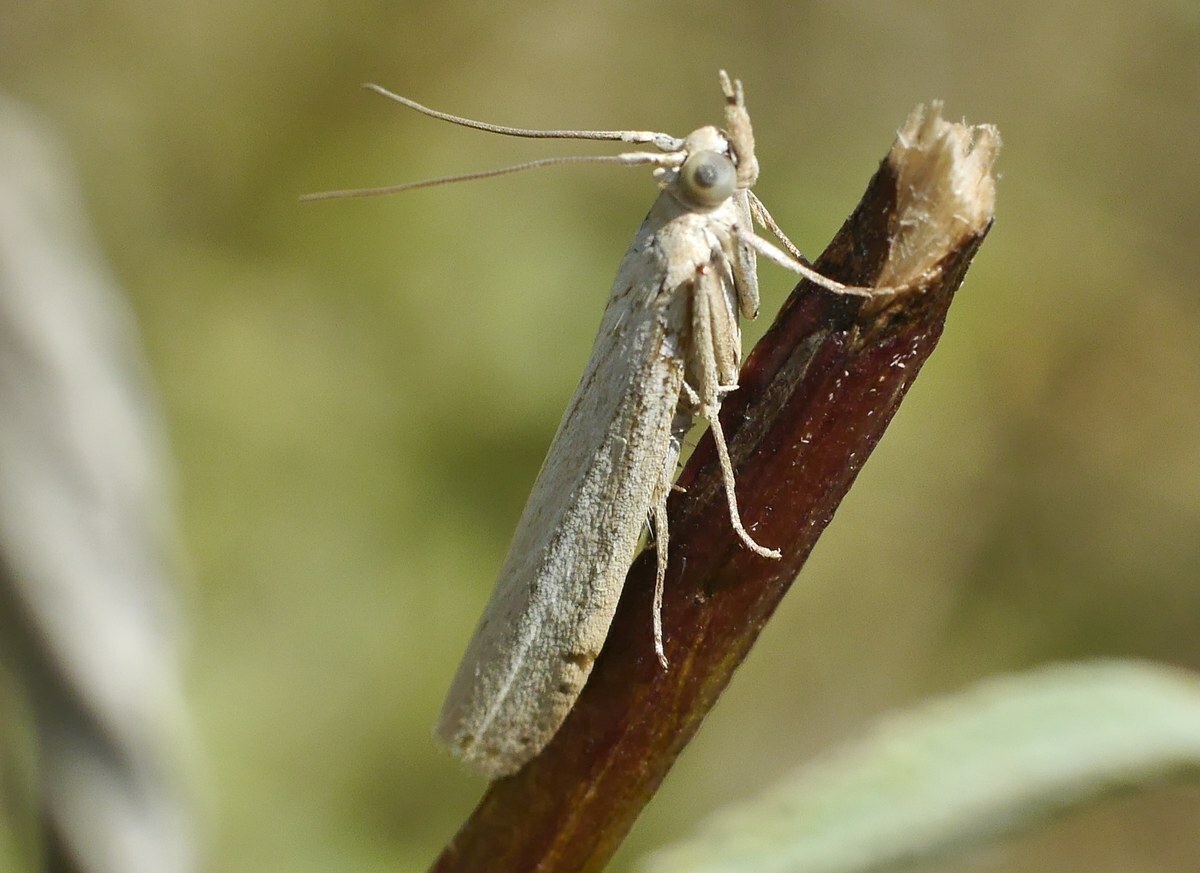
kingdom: Animalia
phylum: Arthropoda
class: Insecta
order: Lepidoptera
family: Pyralidae
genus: Selagia
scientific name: Selagia argyrella
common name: Silvery knot-horn
